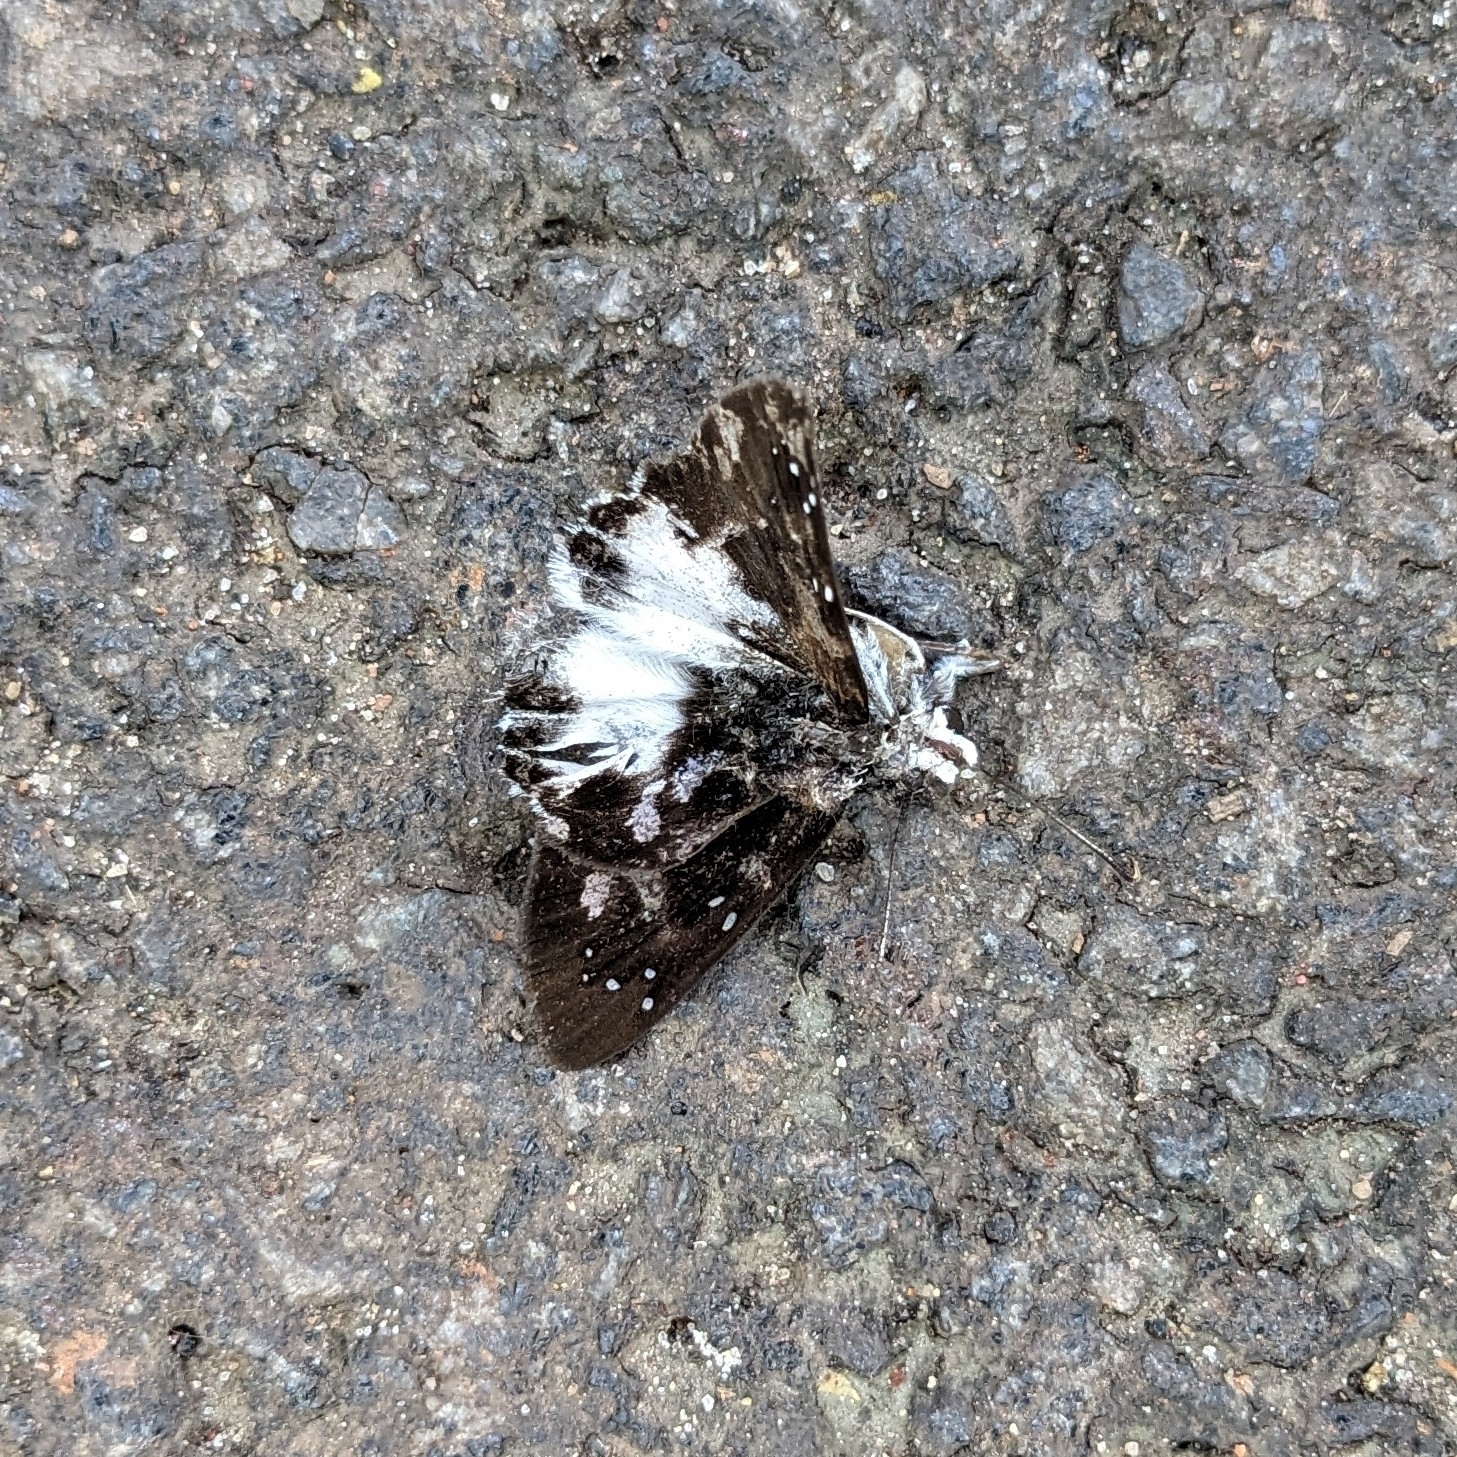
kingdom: Animalia
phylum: Arthropoda
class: Insecta
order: Lepidoptera
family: Hesperiidae
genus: Tagiades
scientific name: Tagiades litigiosa
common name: Water snow flat
